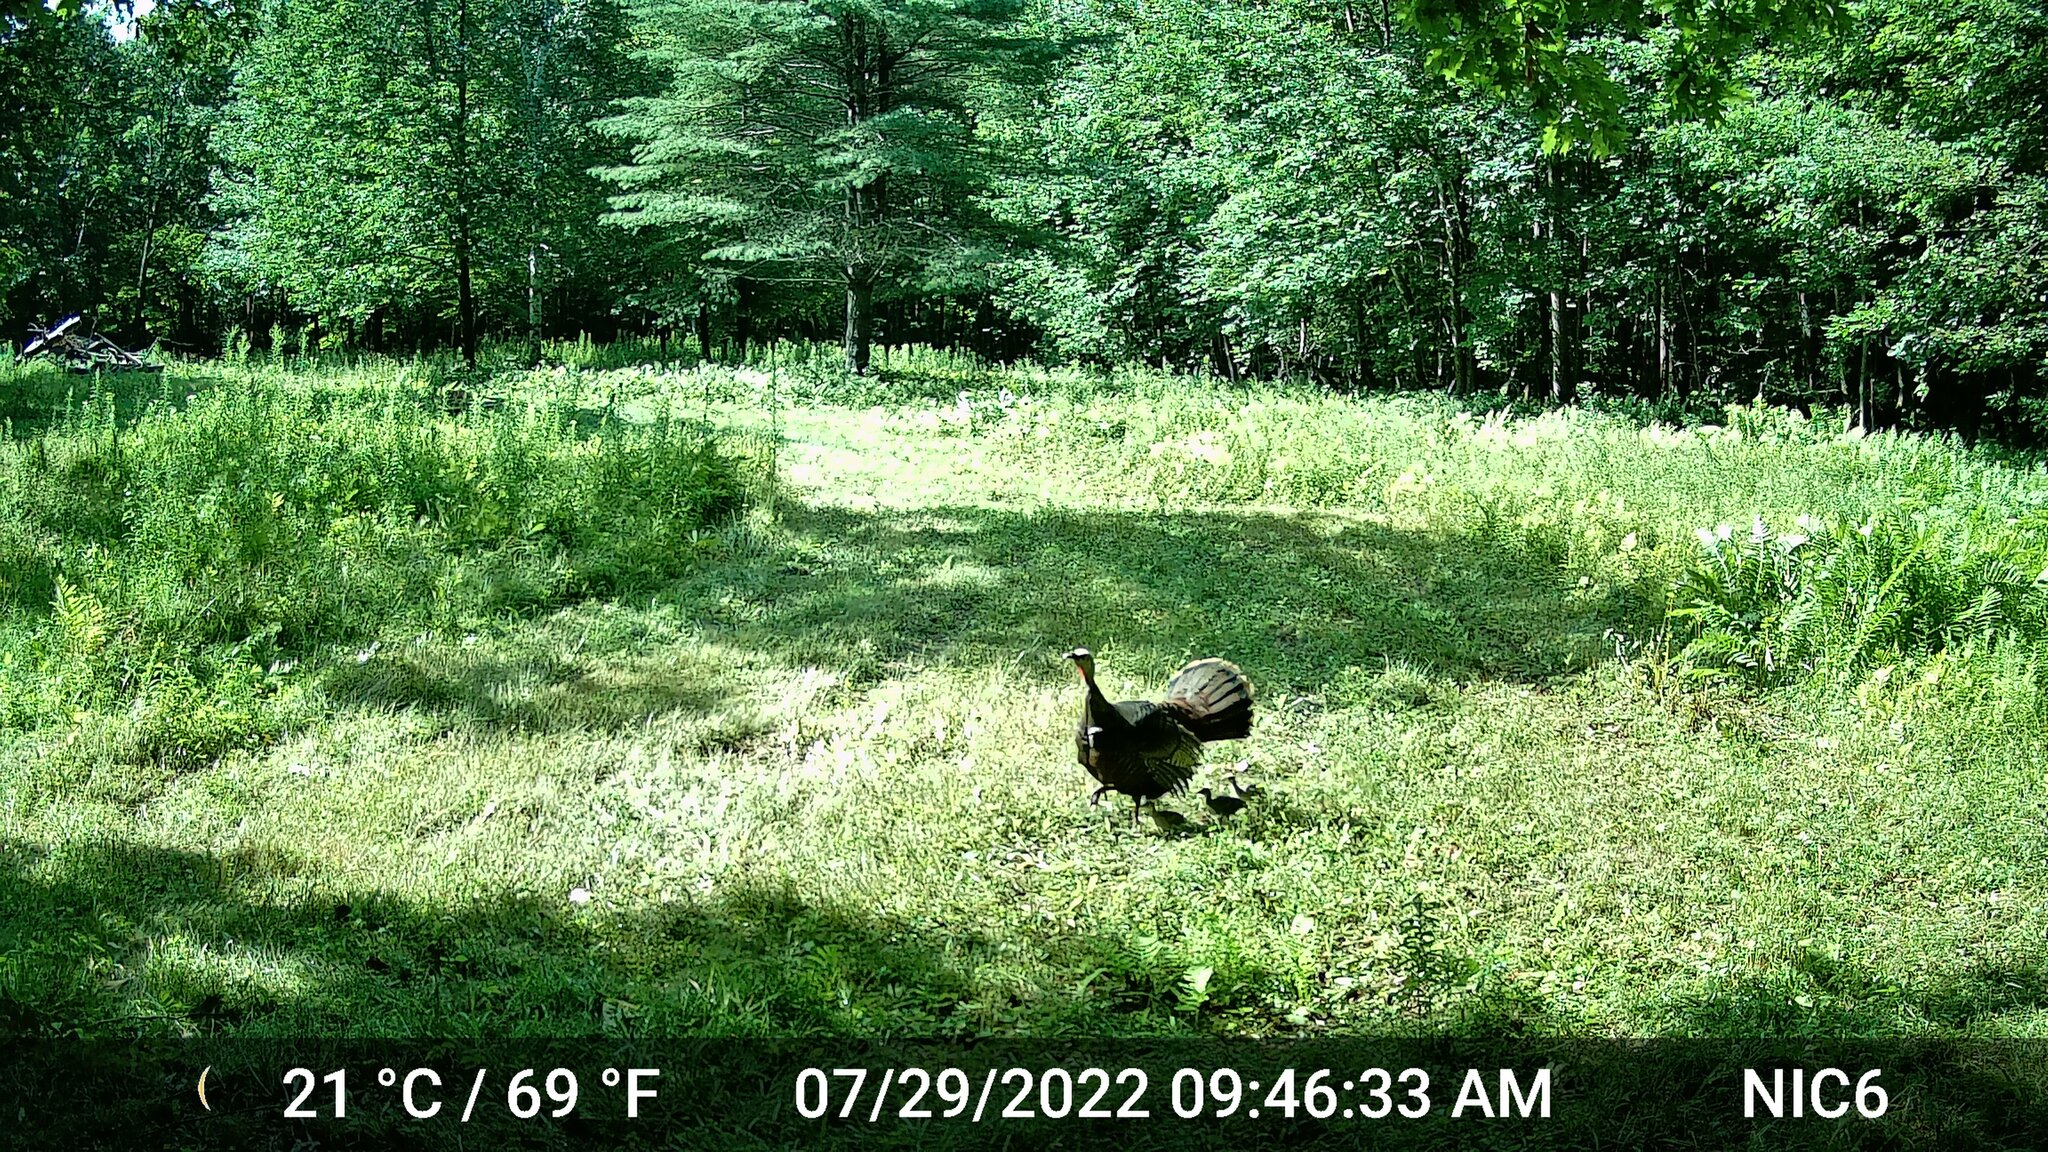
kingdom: Animalia
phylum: Chordata
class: Aves
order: Galliformes
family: Phasianidae
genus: Meleagris
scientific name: Meleagris gallopavo
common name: Wild turkey
